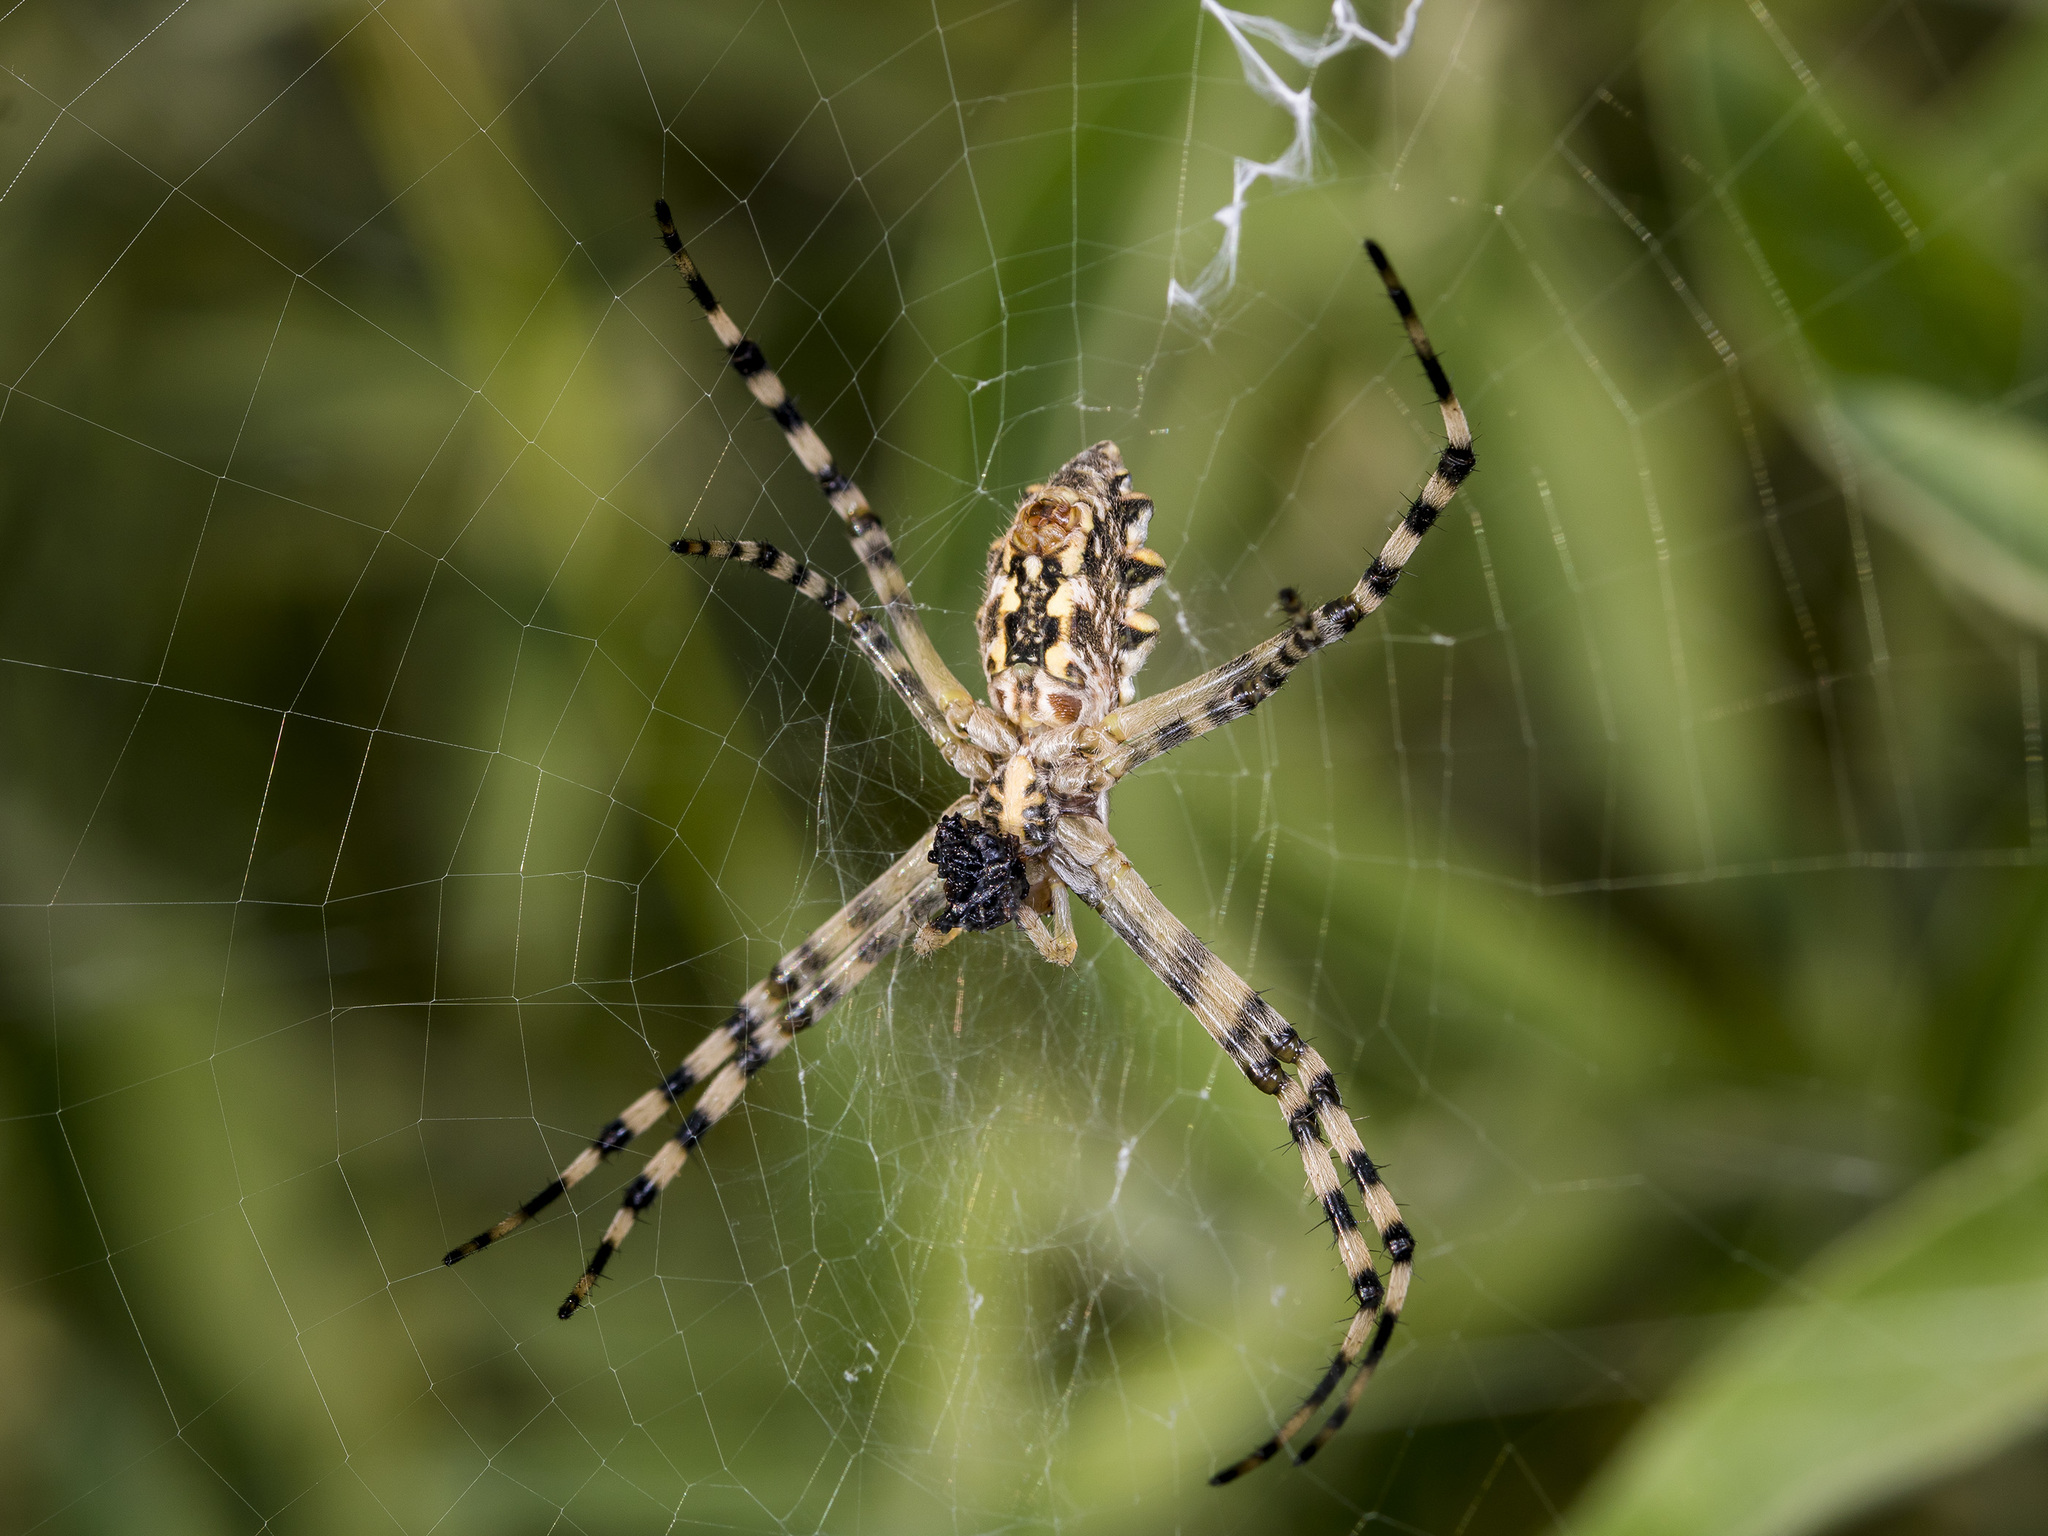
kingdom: Animalia
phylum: Arthropoda
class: Arachnida
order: Araneae
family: Araneidae
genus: Argiope
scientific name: Argiope lobata
